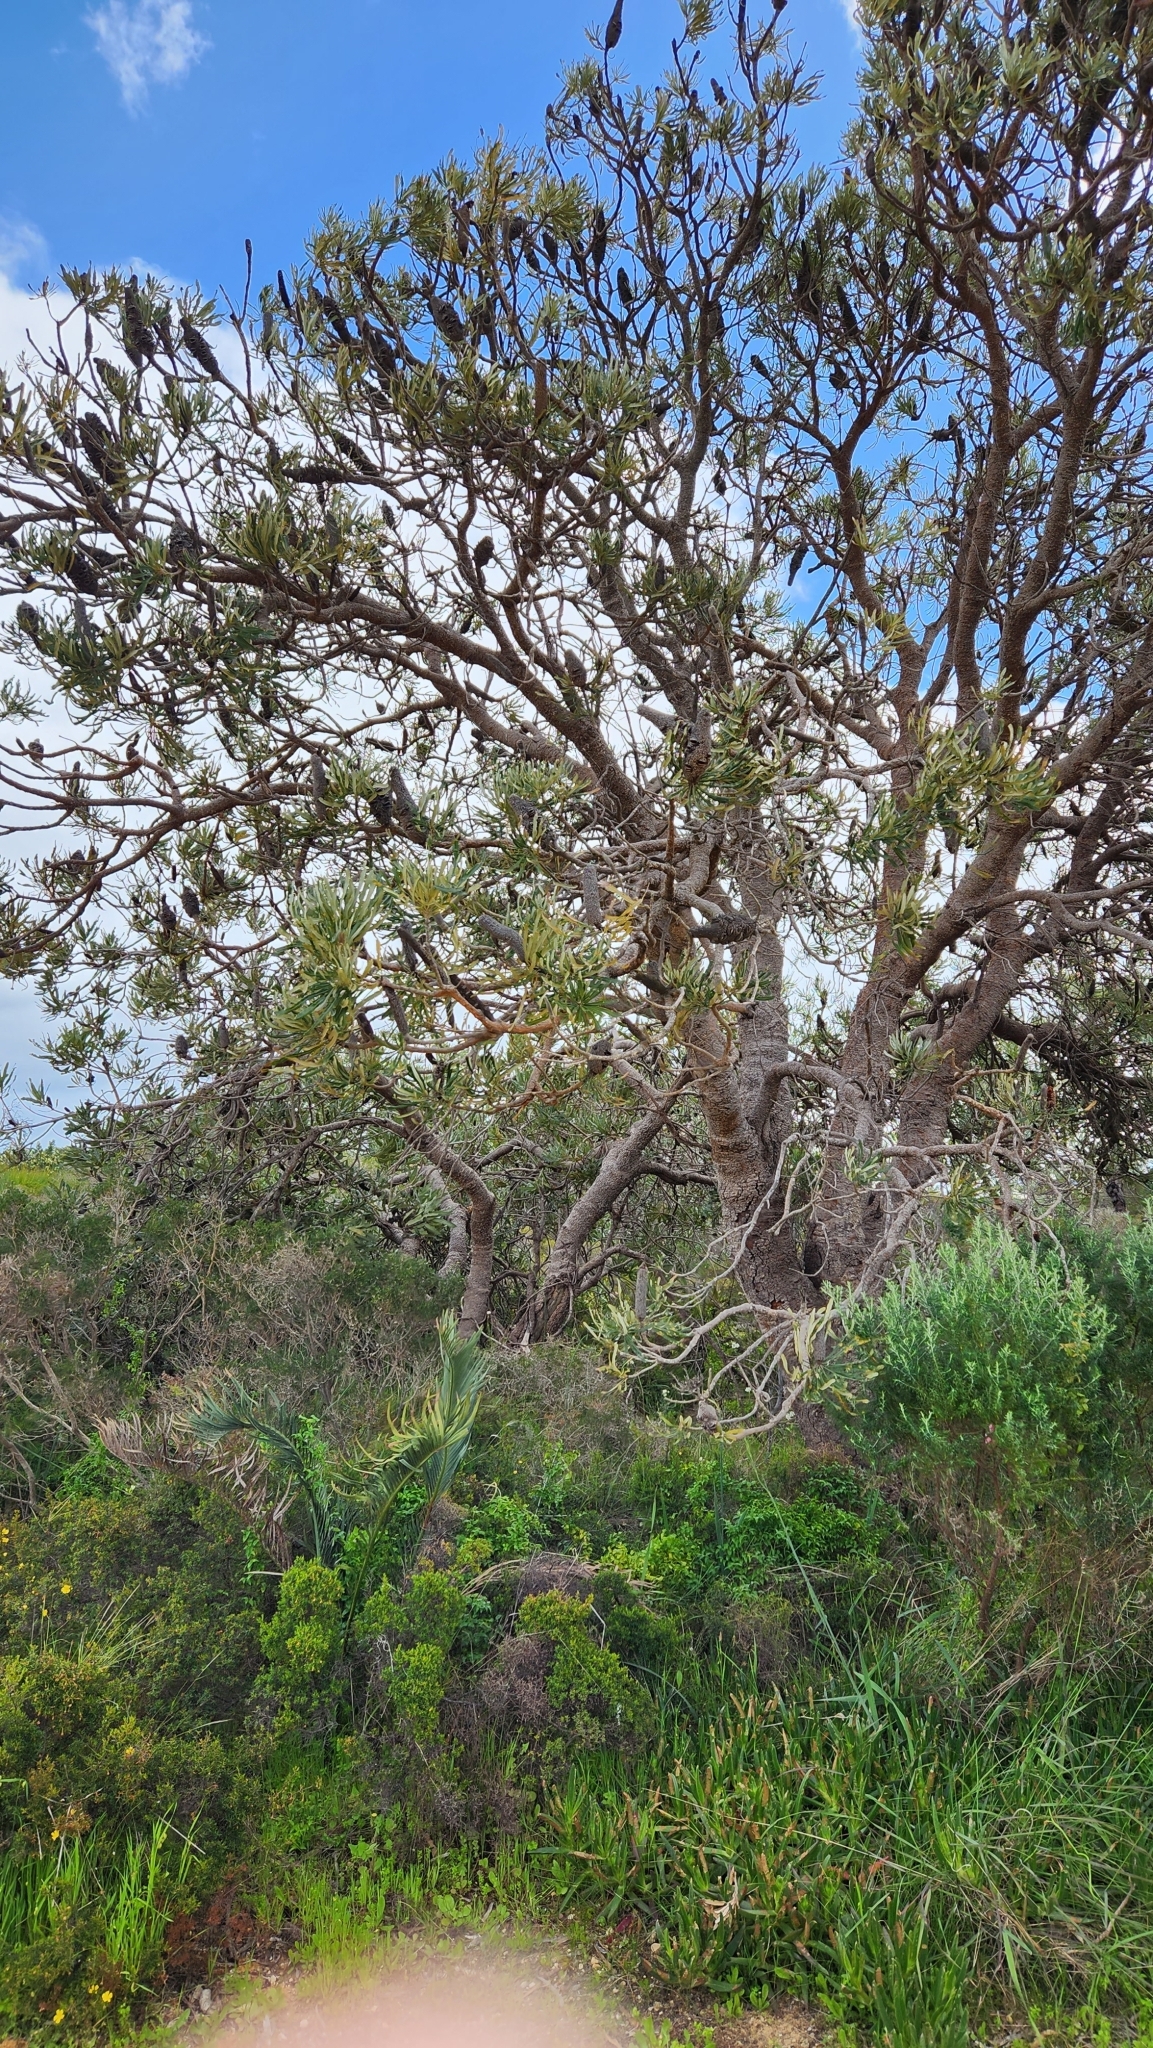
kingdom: Plantae
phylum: Tracheophyta
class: Magnoliopsida
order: Proteales
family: Proteaceae
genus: Banksia
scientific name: Banksia attenuata
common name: Coast banksia
